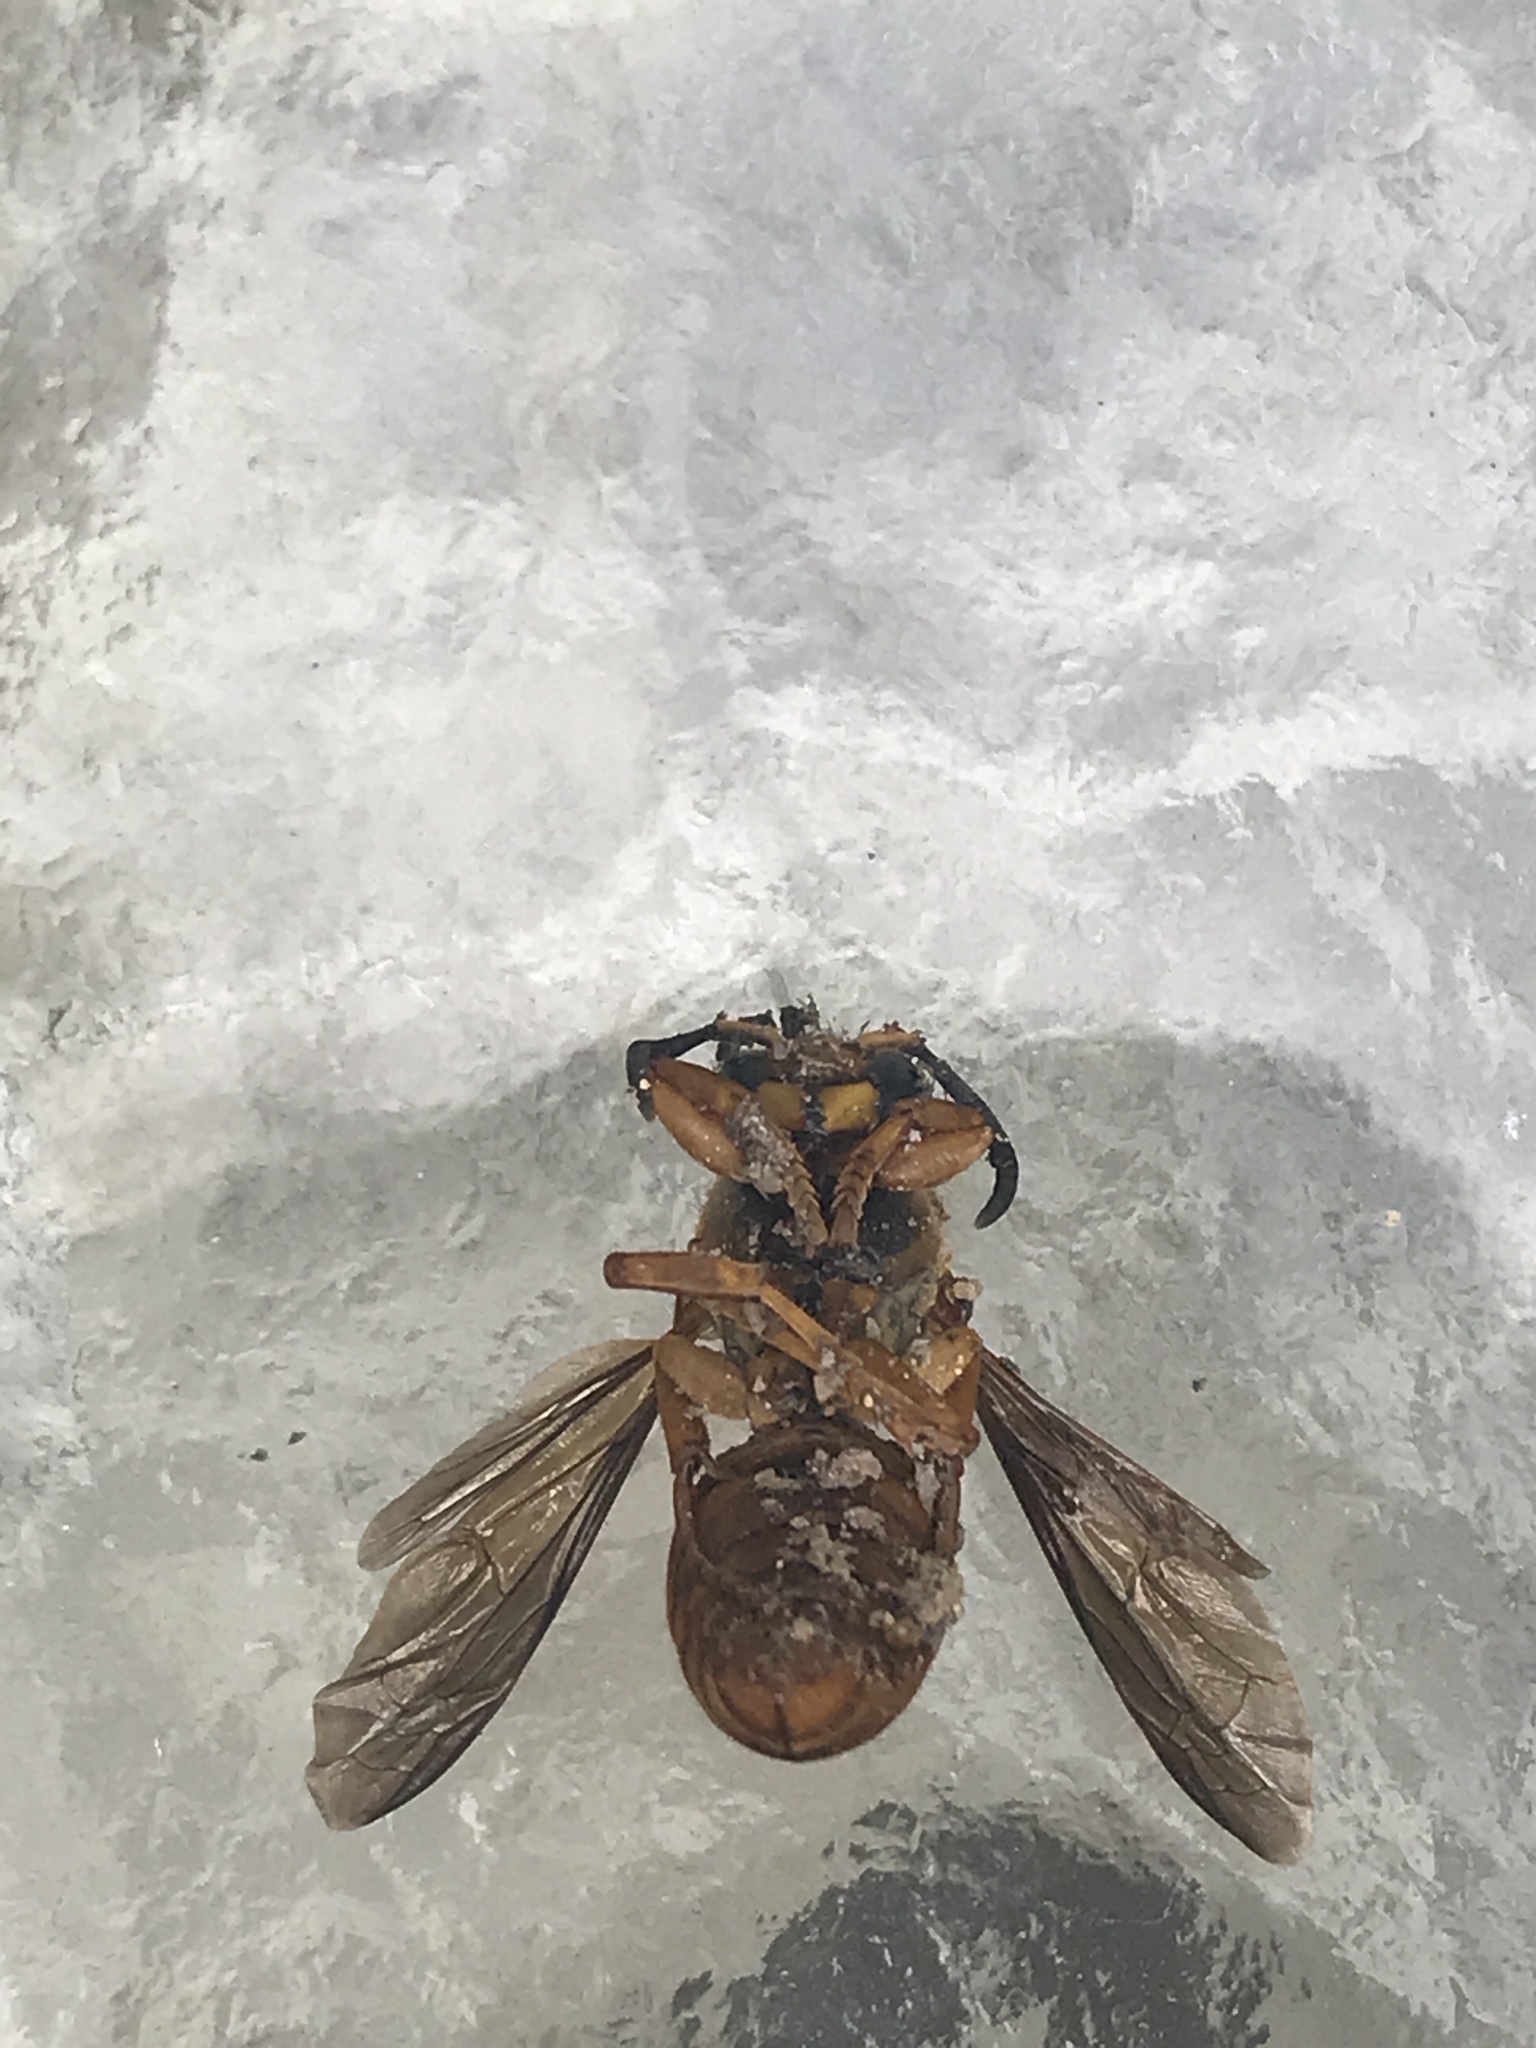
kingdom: Animalia
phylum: Arthropoda
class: Insecta
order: Hymenoptera
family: Vespidae
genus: Vespula
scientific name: Vespula squamosa
